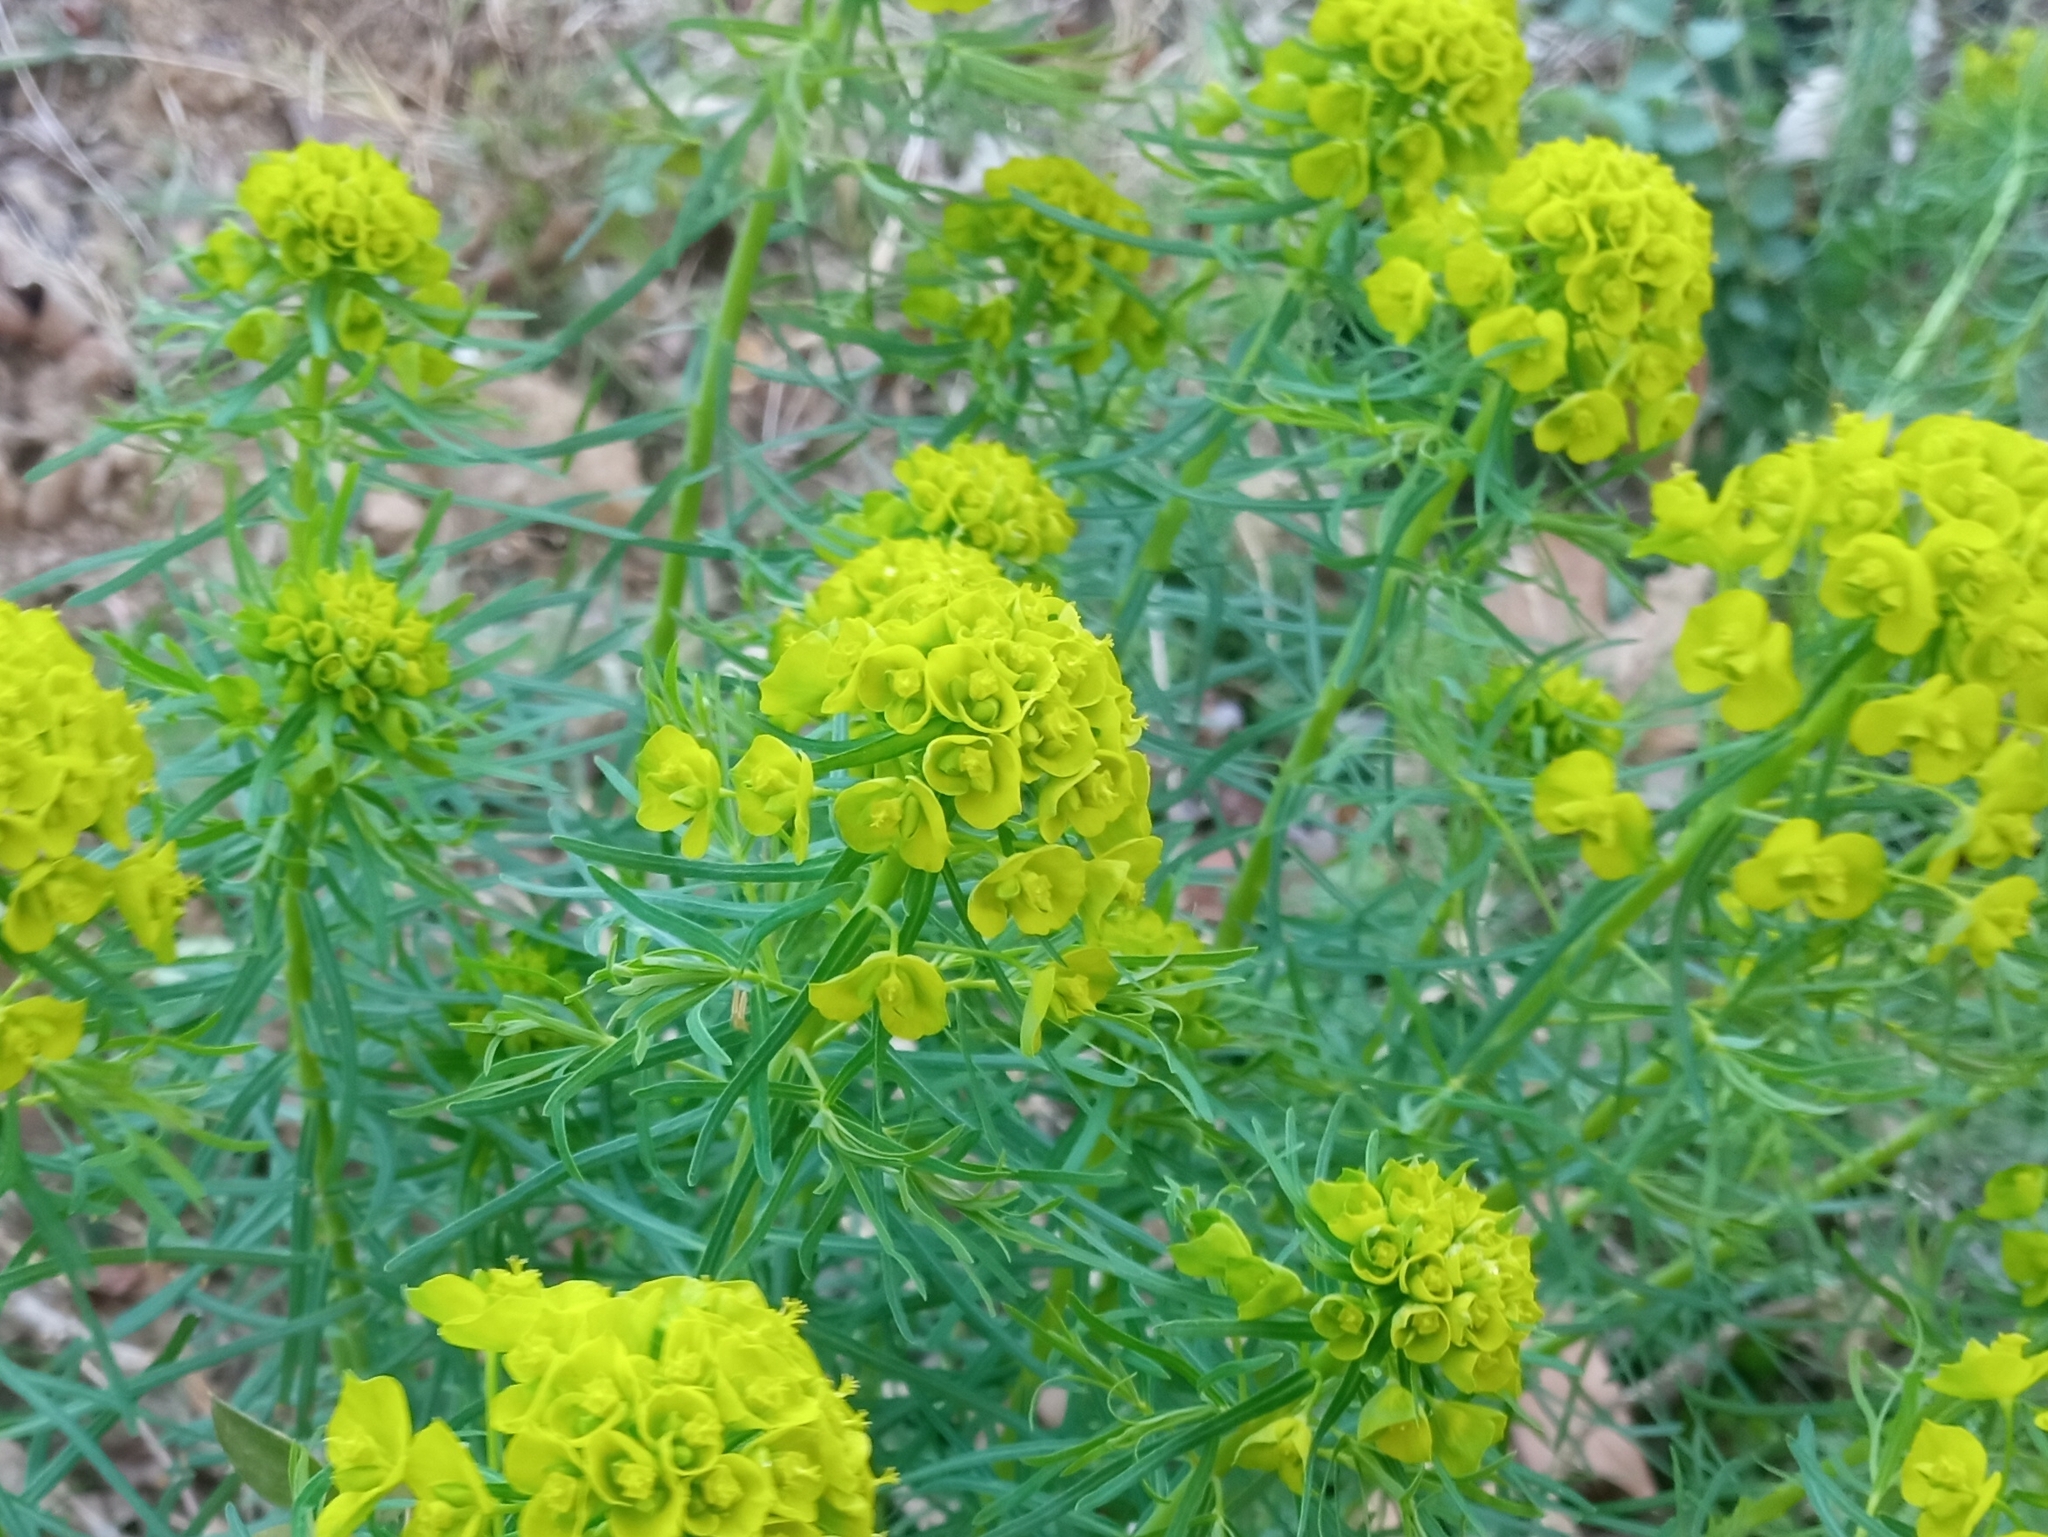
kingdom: Plantae
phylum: Tracheophyta
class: Magnoliopsida
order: Malpighiales
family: Euphorbiaceae
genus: Euphorbia
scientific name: Euphorbia cyparissias
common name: Cypress spurge
